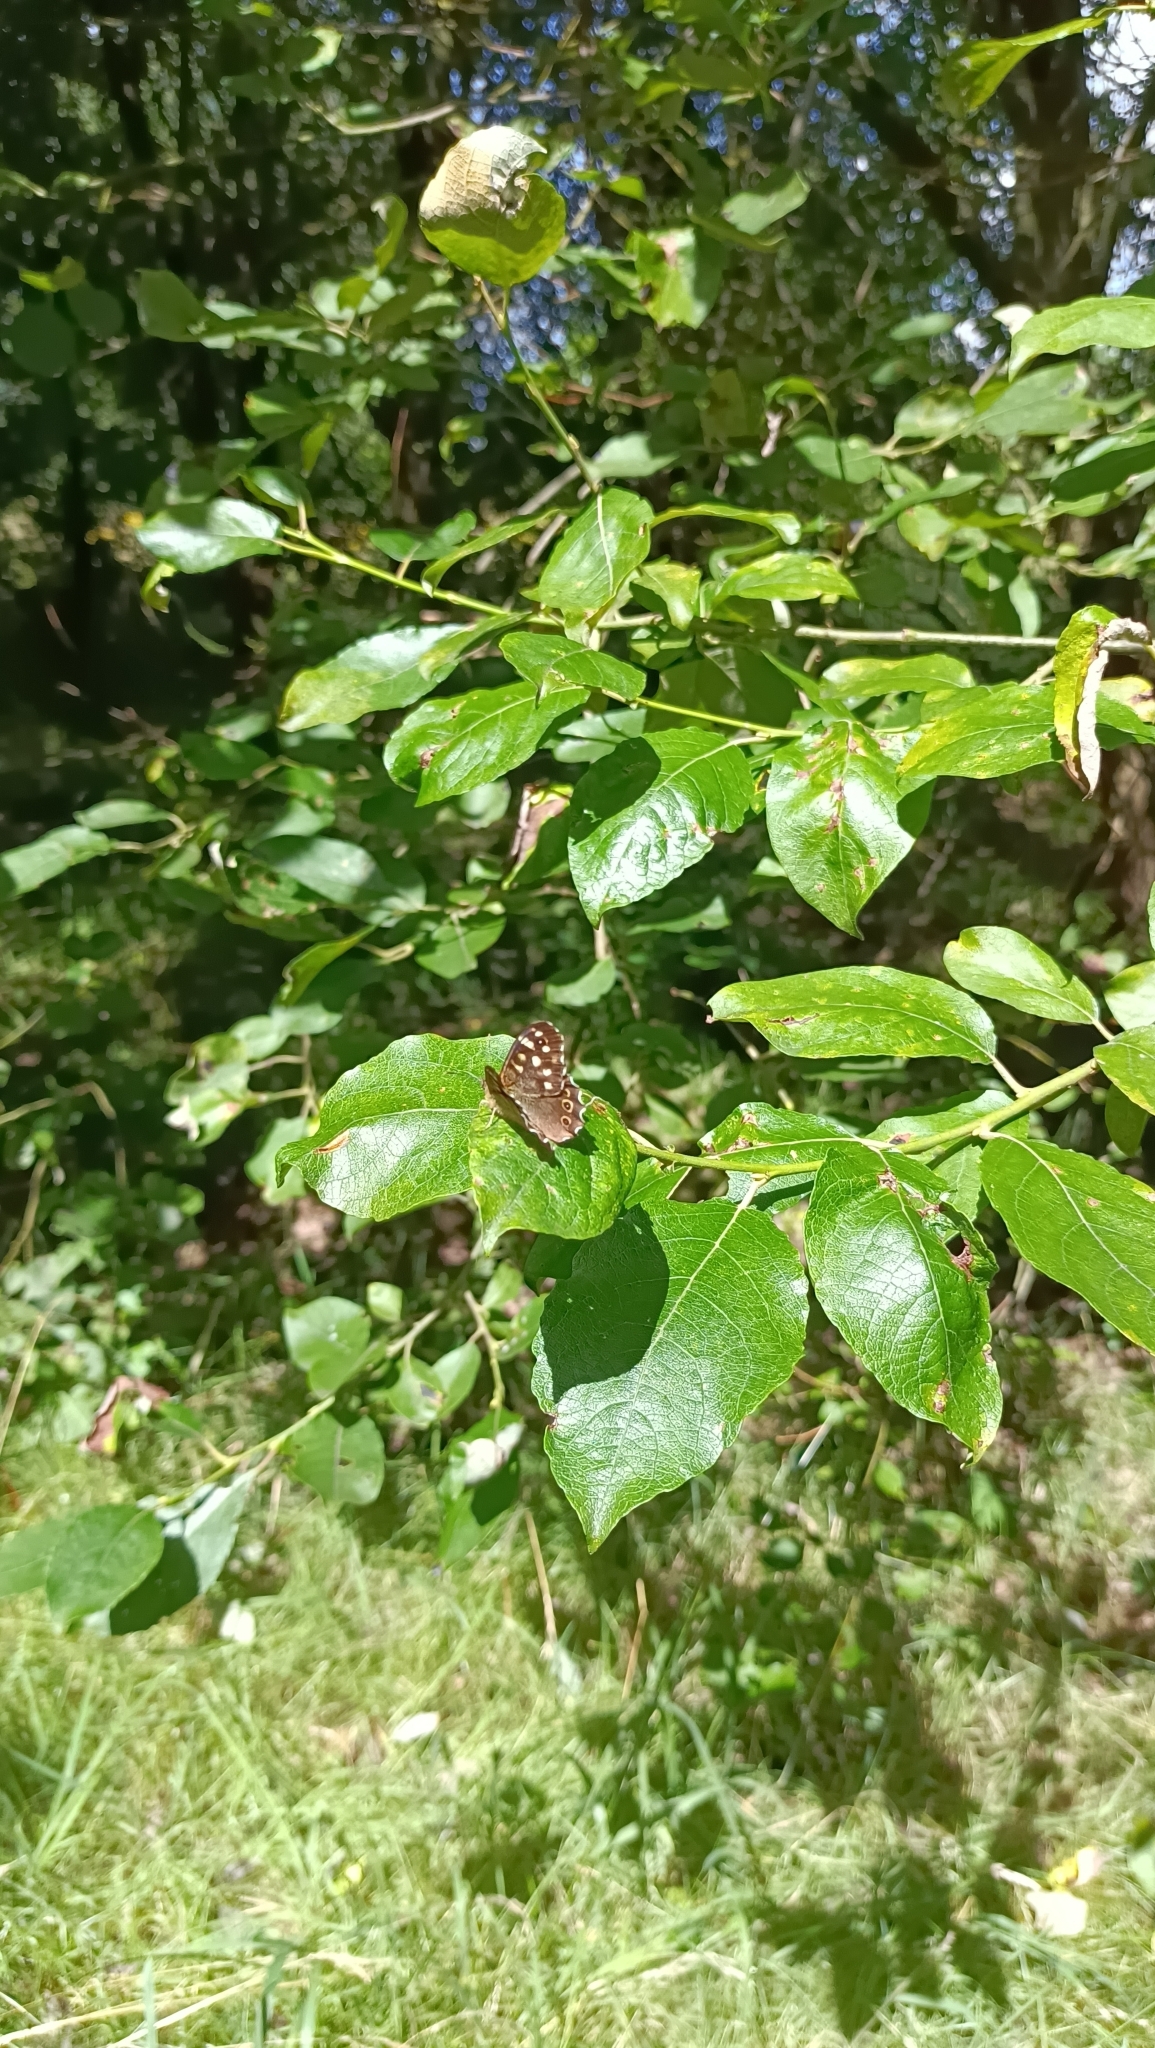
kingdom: Animalia
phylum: Arthropoda
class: Insecta
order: Lepidoptera
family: Nymphalidae
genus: Pararge
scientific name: Pararge aegeria
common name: Speckled wood
